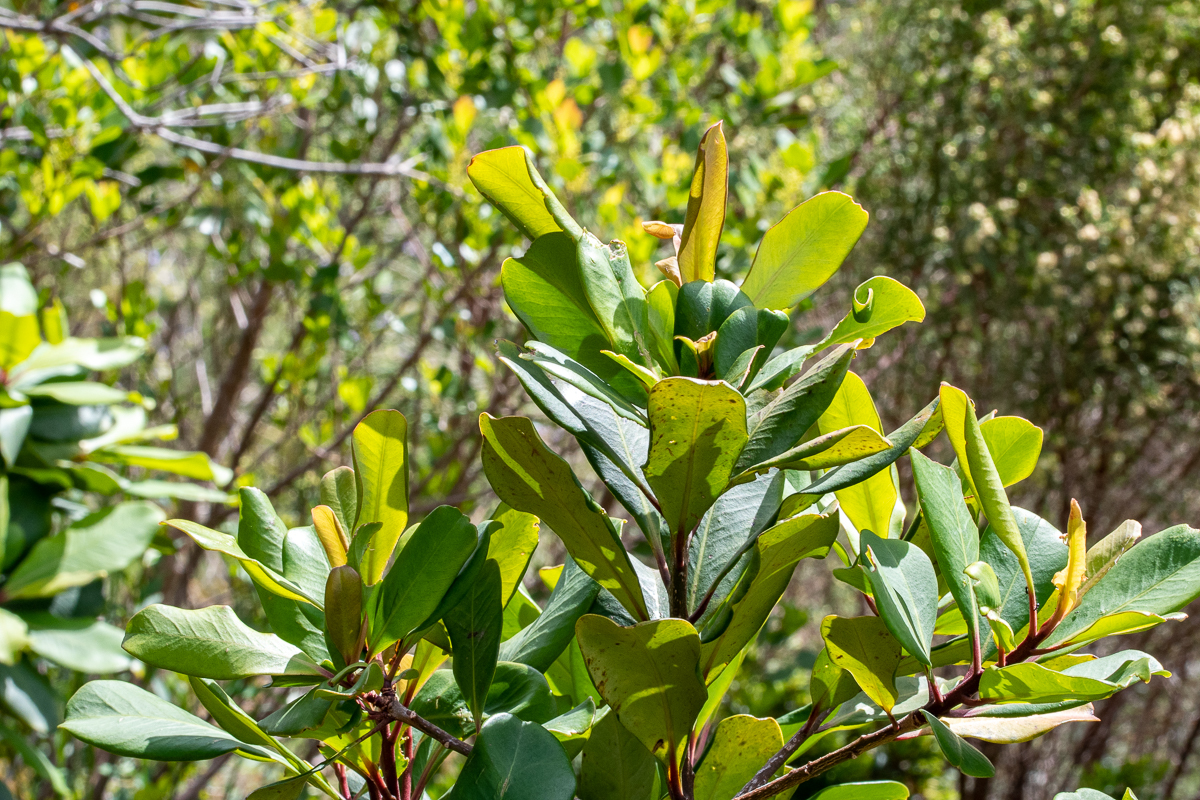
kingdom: Plantae
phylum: Tracheophyta
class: Magnoliopsida
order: Sapindales
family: Anacardiaceae
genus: Laurophyllus
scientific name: Laurophyllus capensis
